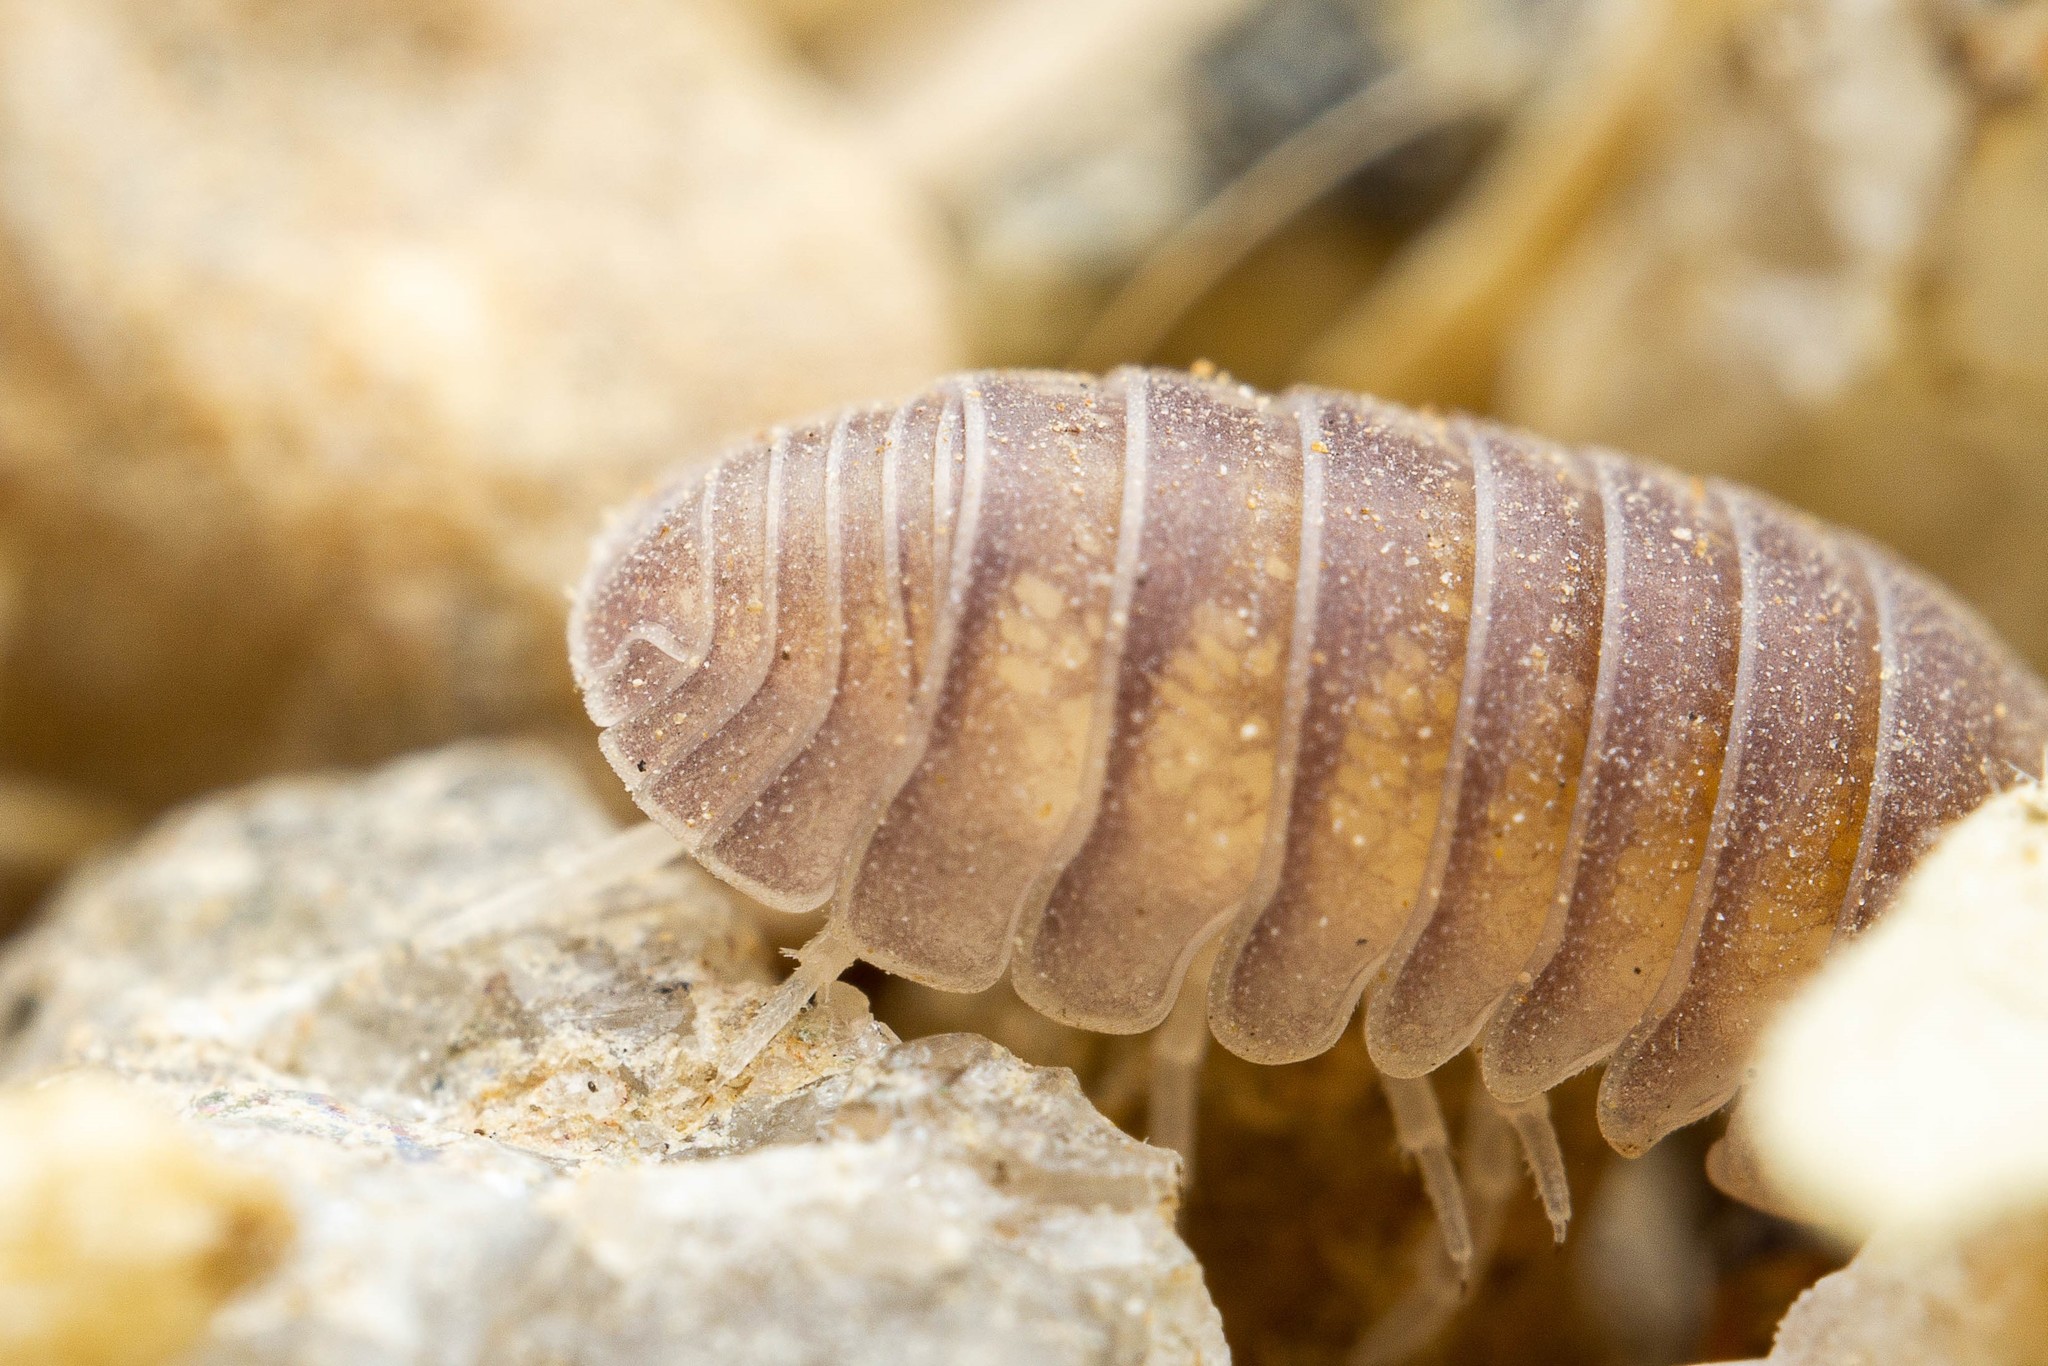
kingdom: Animalia
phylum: Arthropoda
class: Malacostraca
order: Isopoda
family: Armadillidae
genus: Venezillo
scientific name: Venezillo arizonicus
